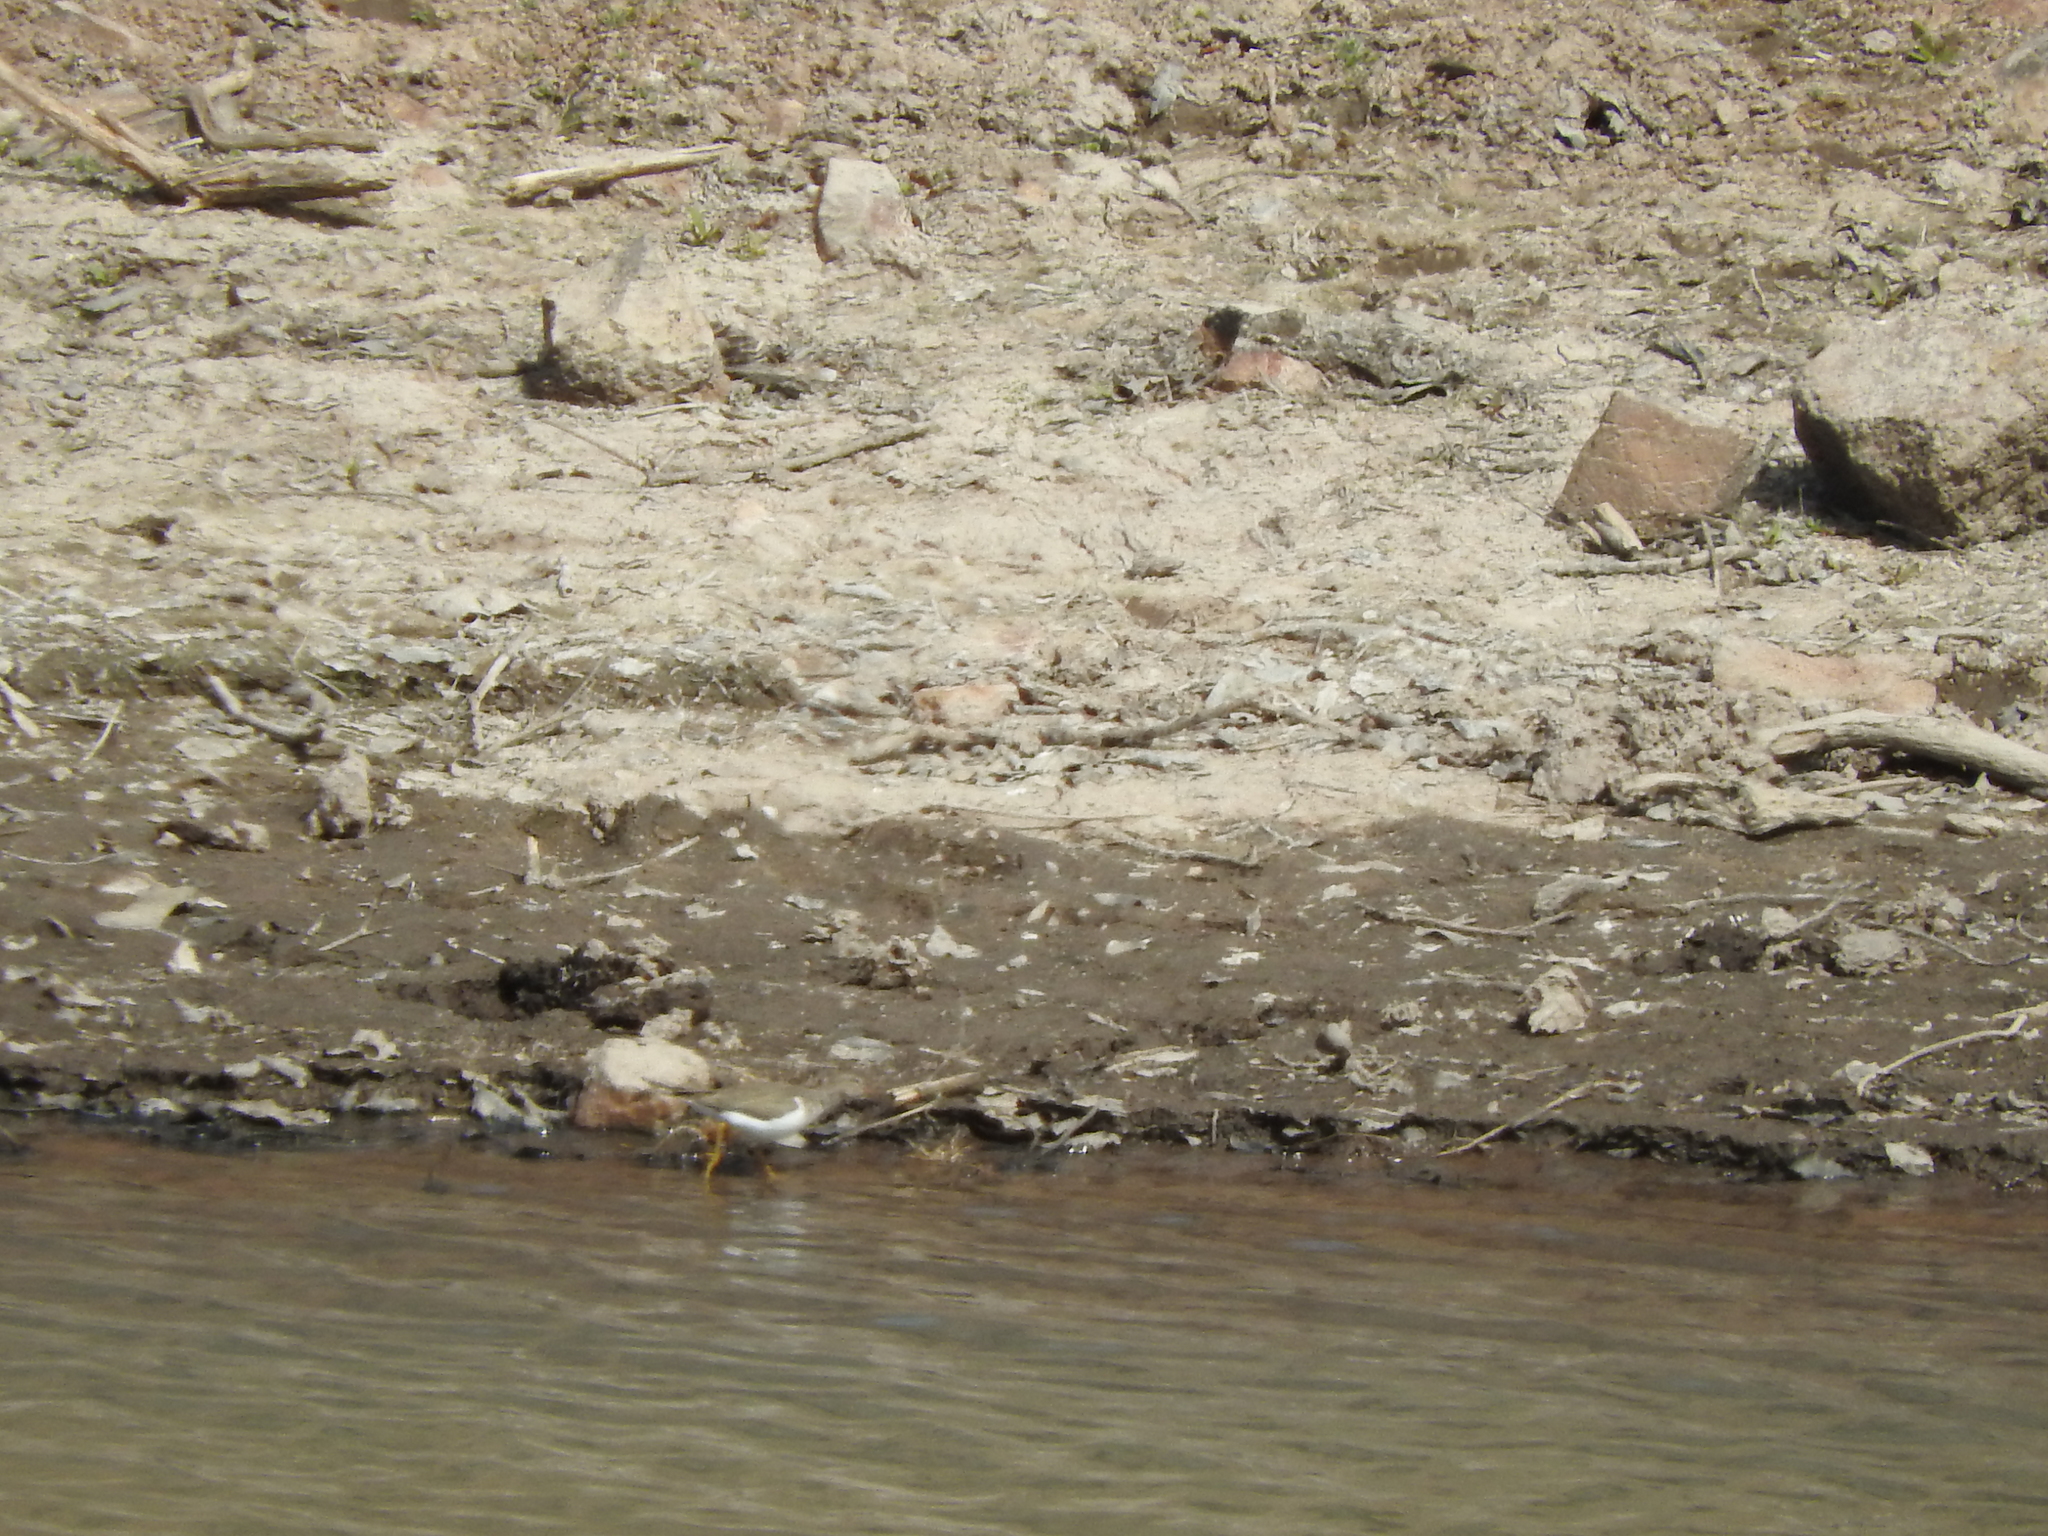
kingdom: Animalia
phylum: Chordata
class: Aves
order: Charadriiformes
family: Scolopacidae
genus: Actitis
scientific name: Actitis macularius
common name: Spotted sandpiper
